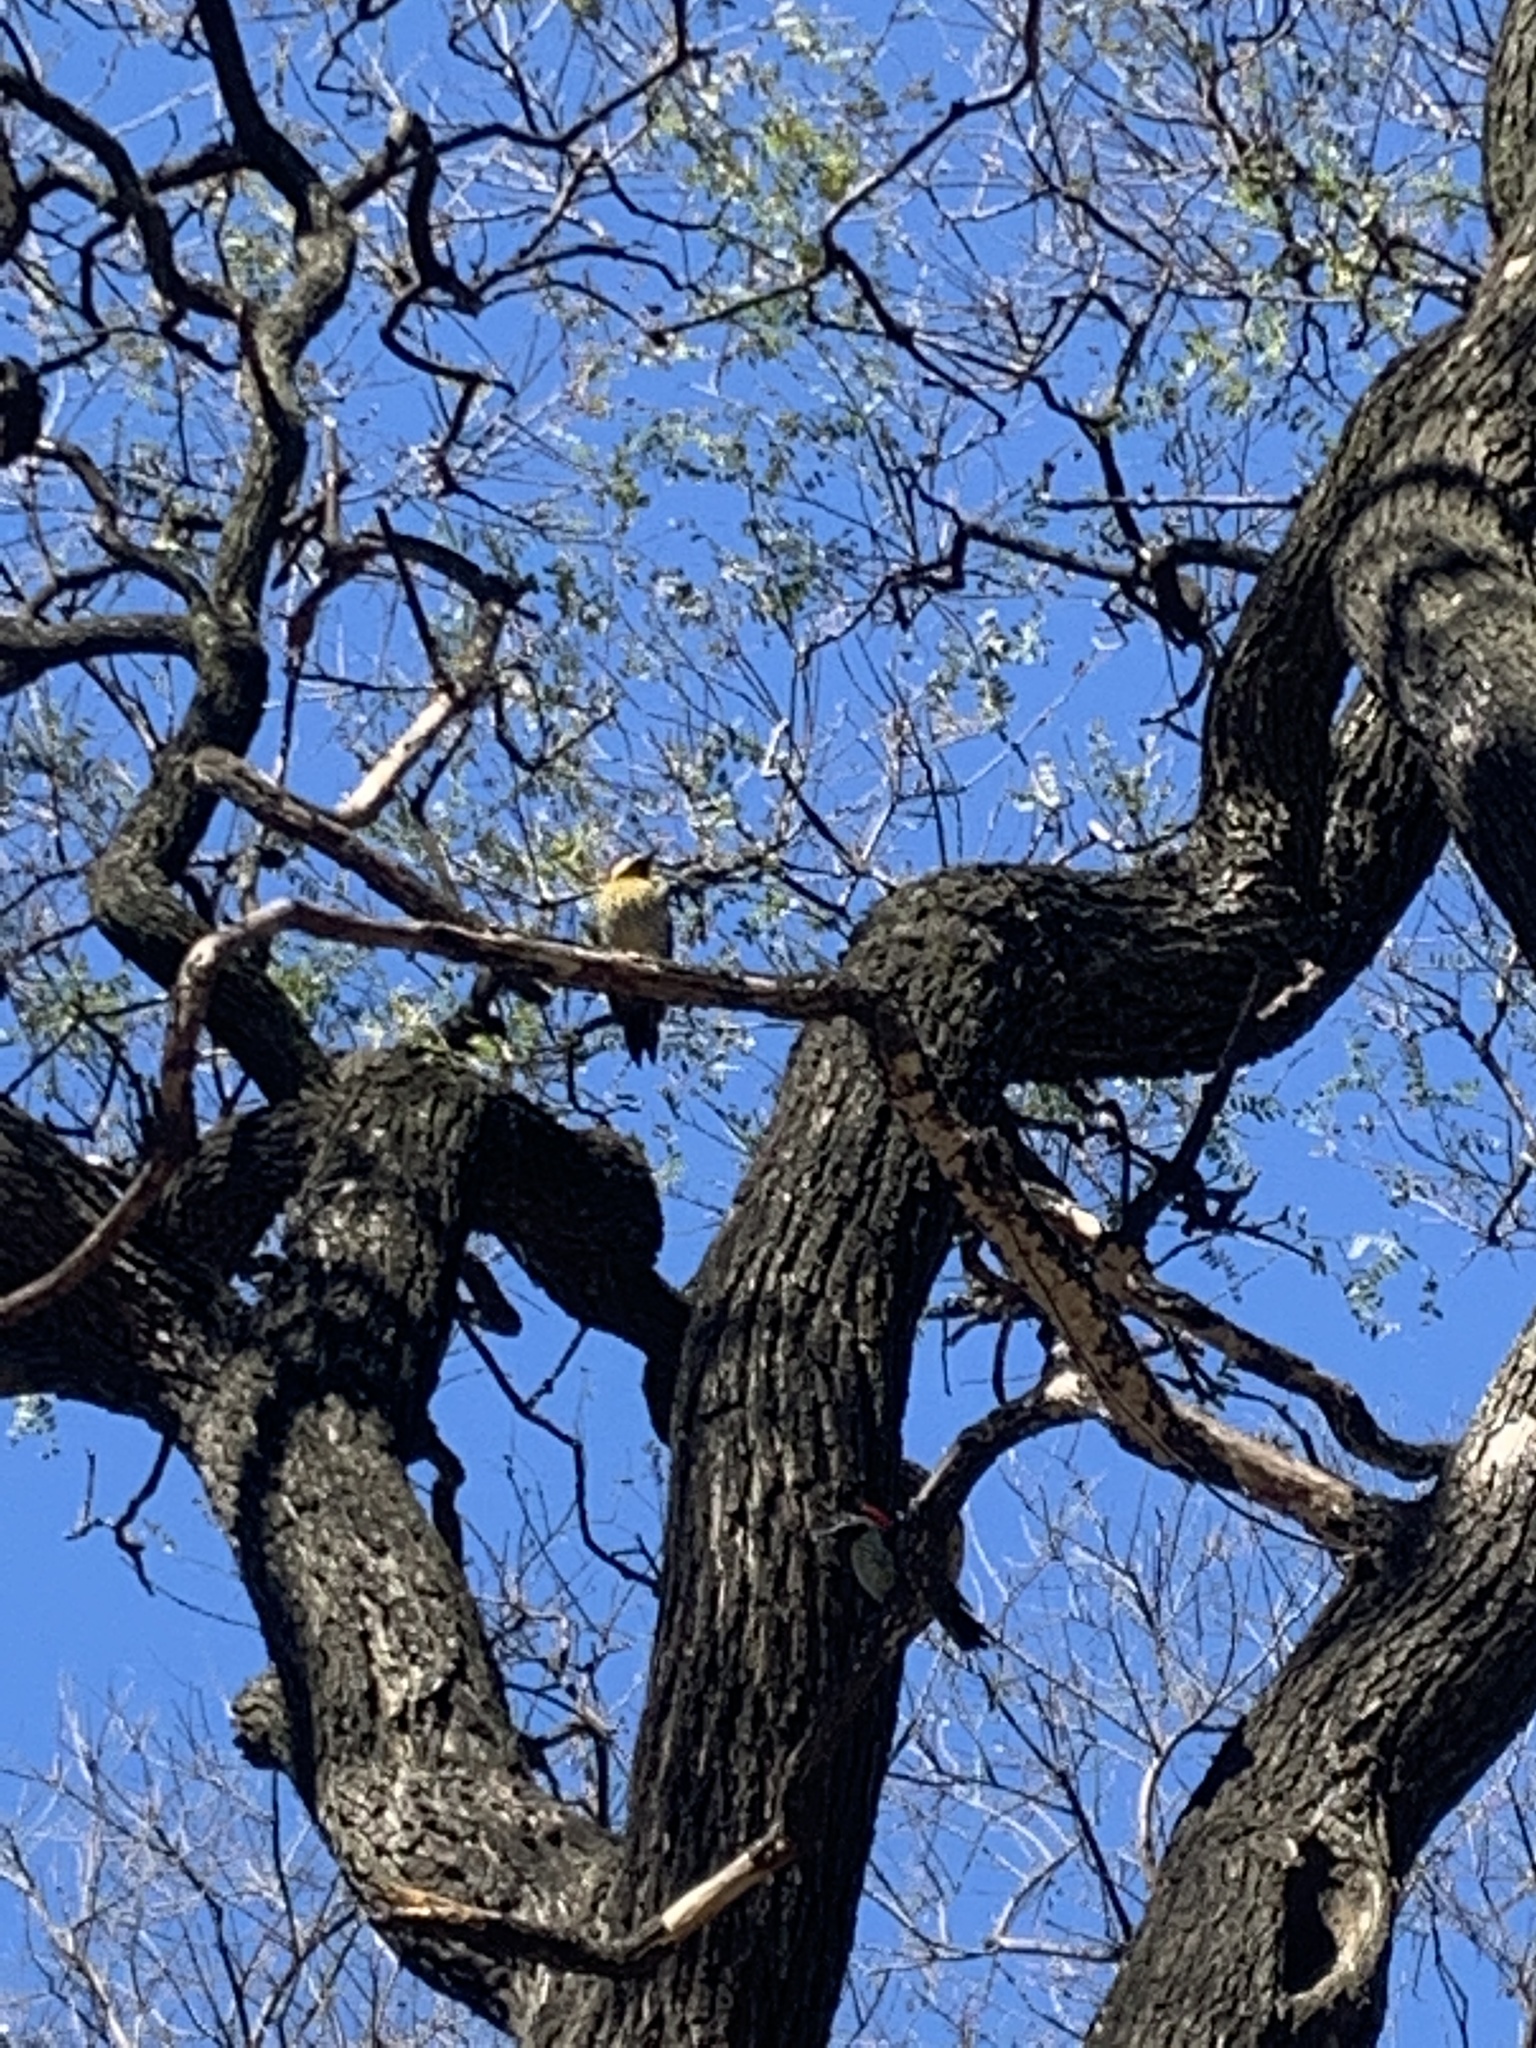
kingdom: Animalia
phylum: Chordata
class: Aves
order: Piciformes
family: Picidae
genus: Colaptes
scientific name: Colaptes melanochloros
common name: Green-barred woodpecker
